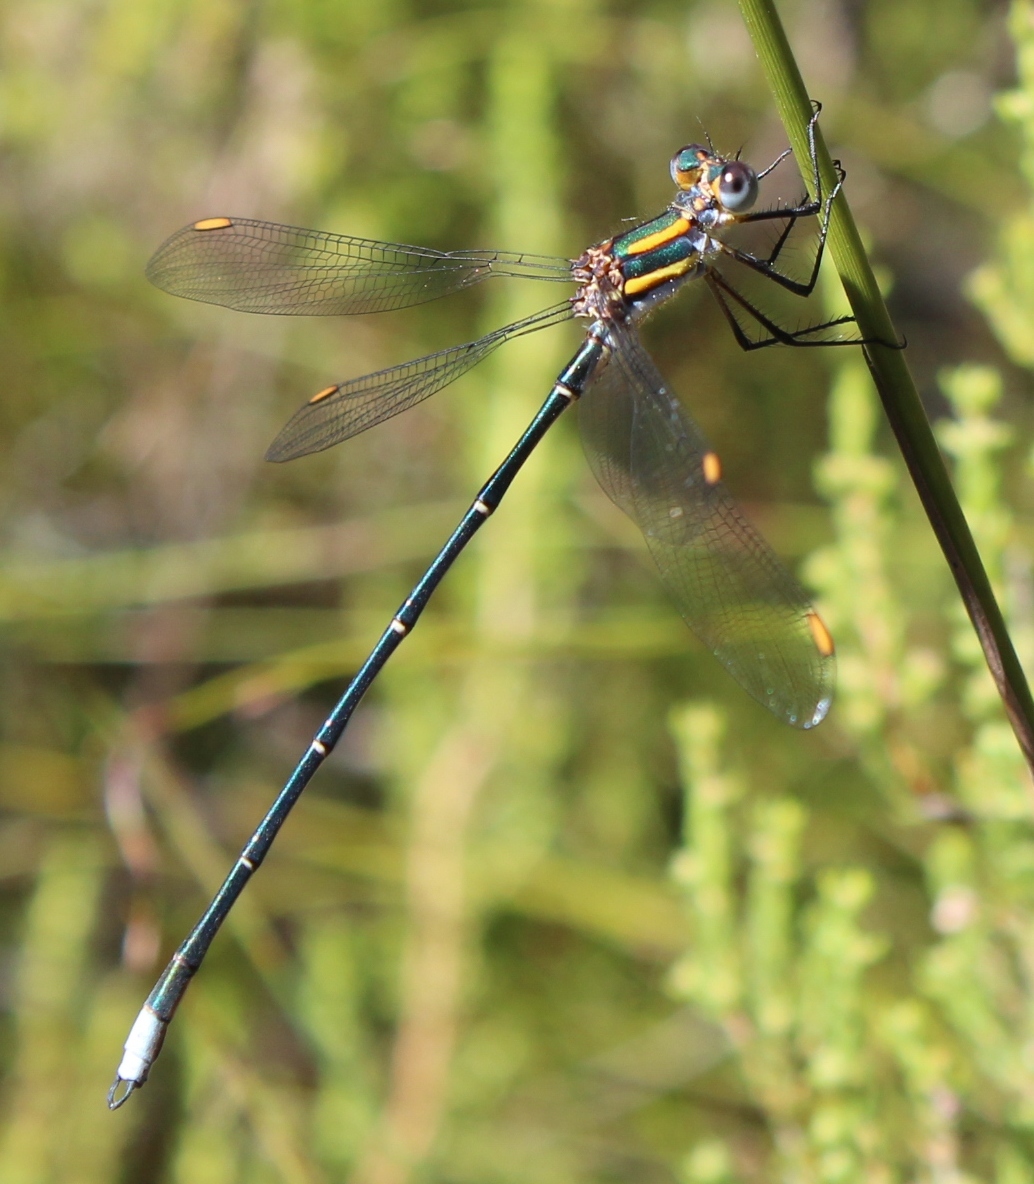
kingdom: Animalia
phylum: Arthropoda
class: Insecta
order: Odonata
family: Synlestidae
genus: Chlorolestes
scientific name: Chlorolestes conspicuus
